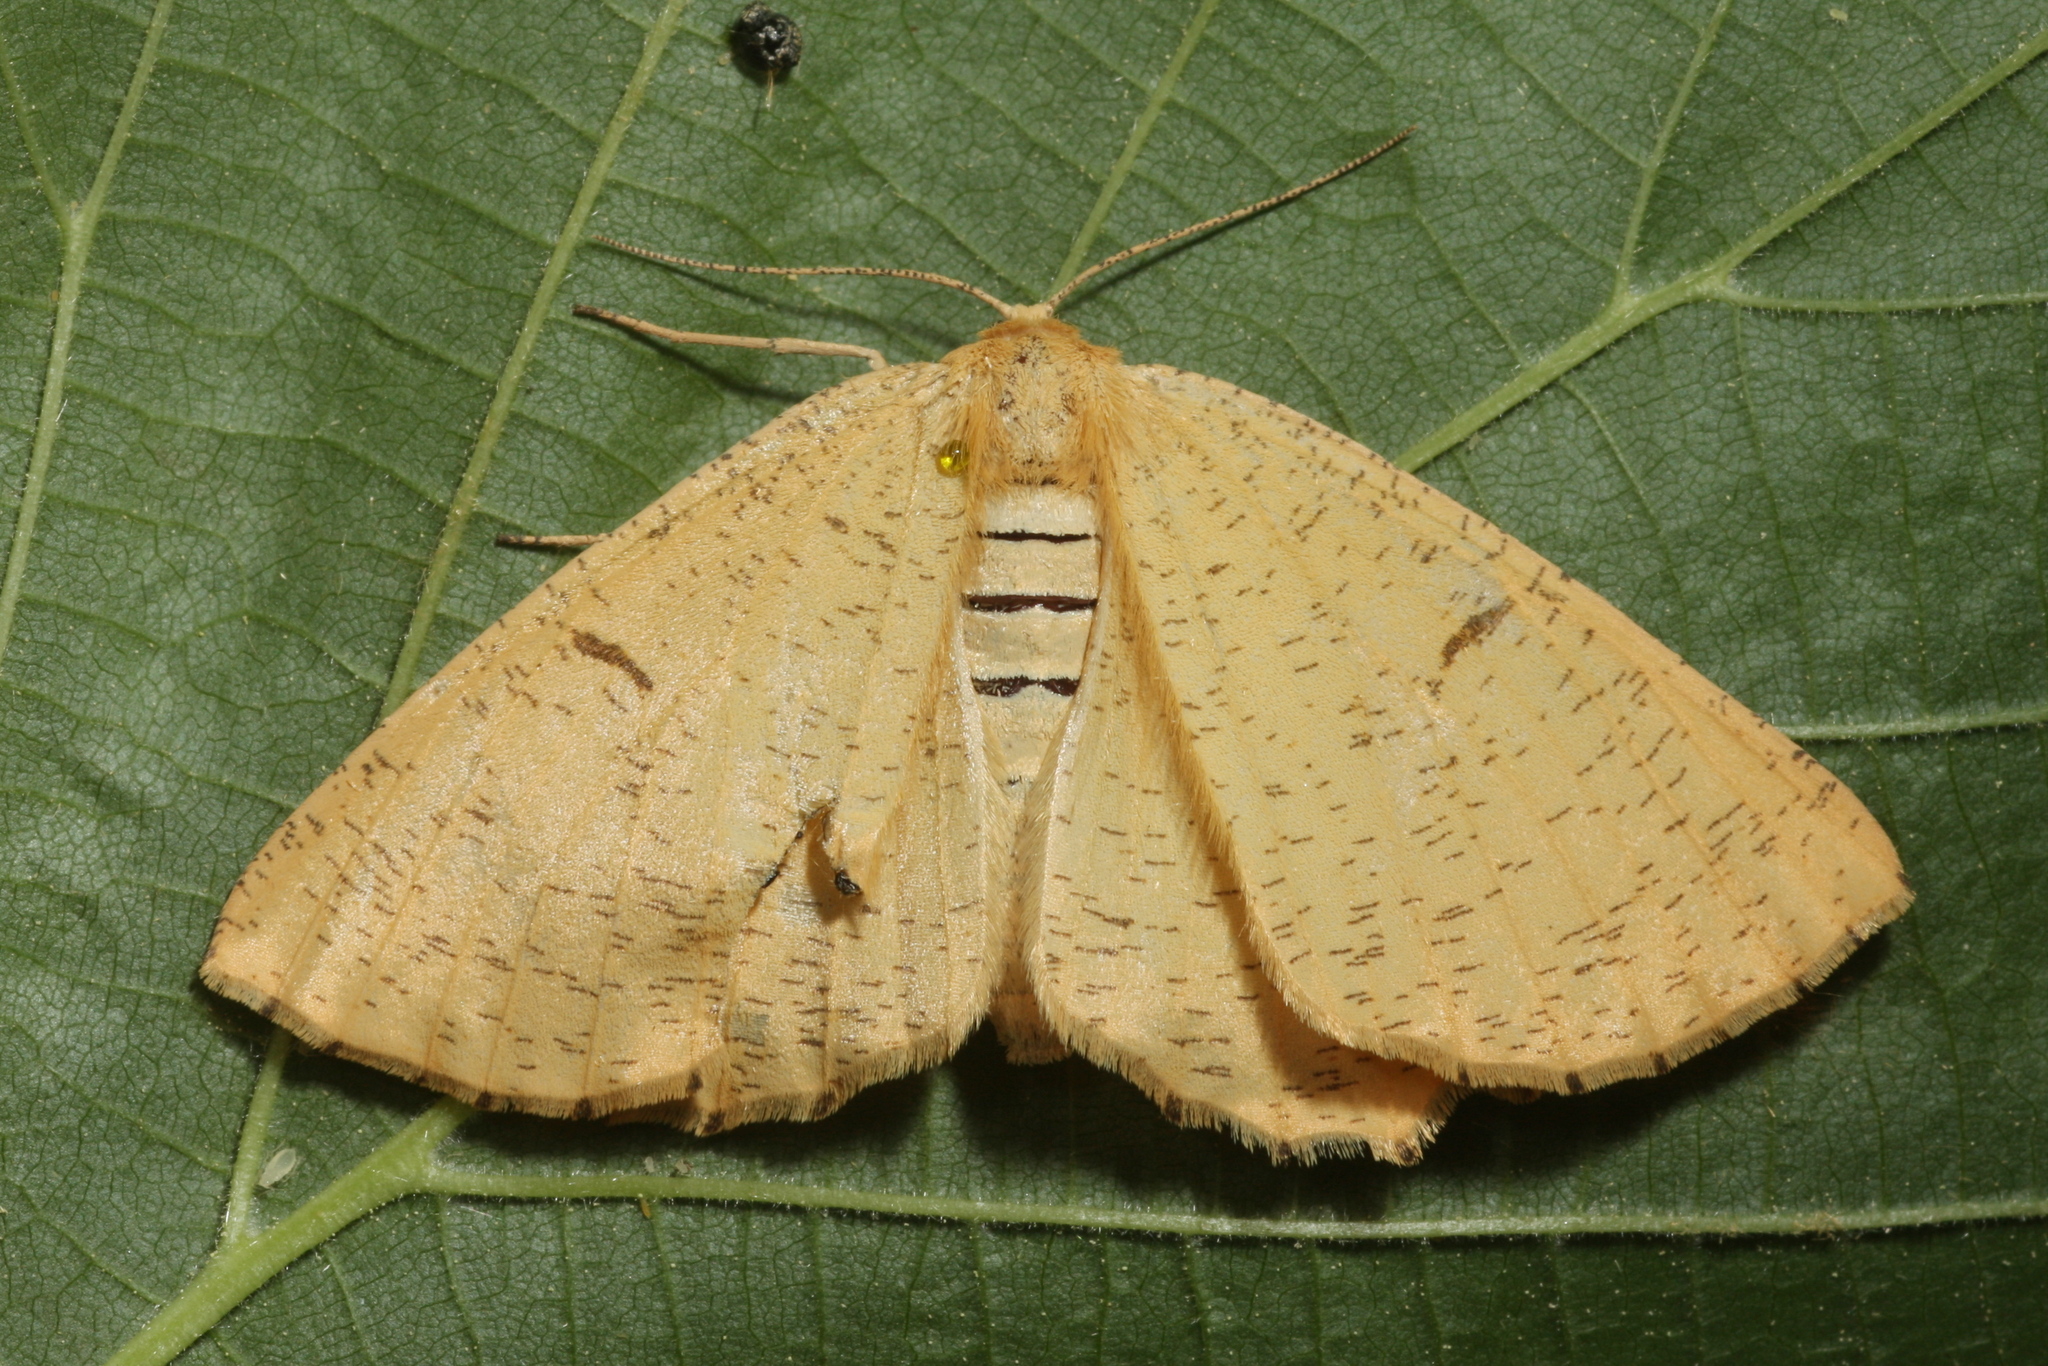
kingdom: Animalia
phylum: Arthropoda
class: Insecta
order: Lepidoptera
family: Geometridae
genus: Angerona
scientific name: Angerona prunaria
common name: Orange moth
